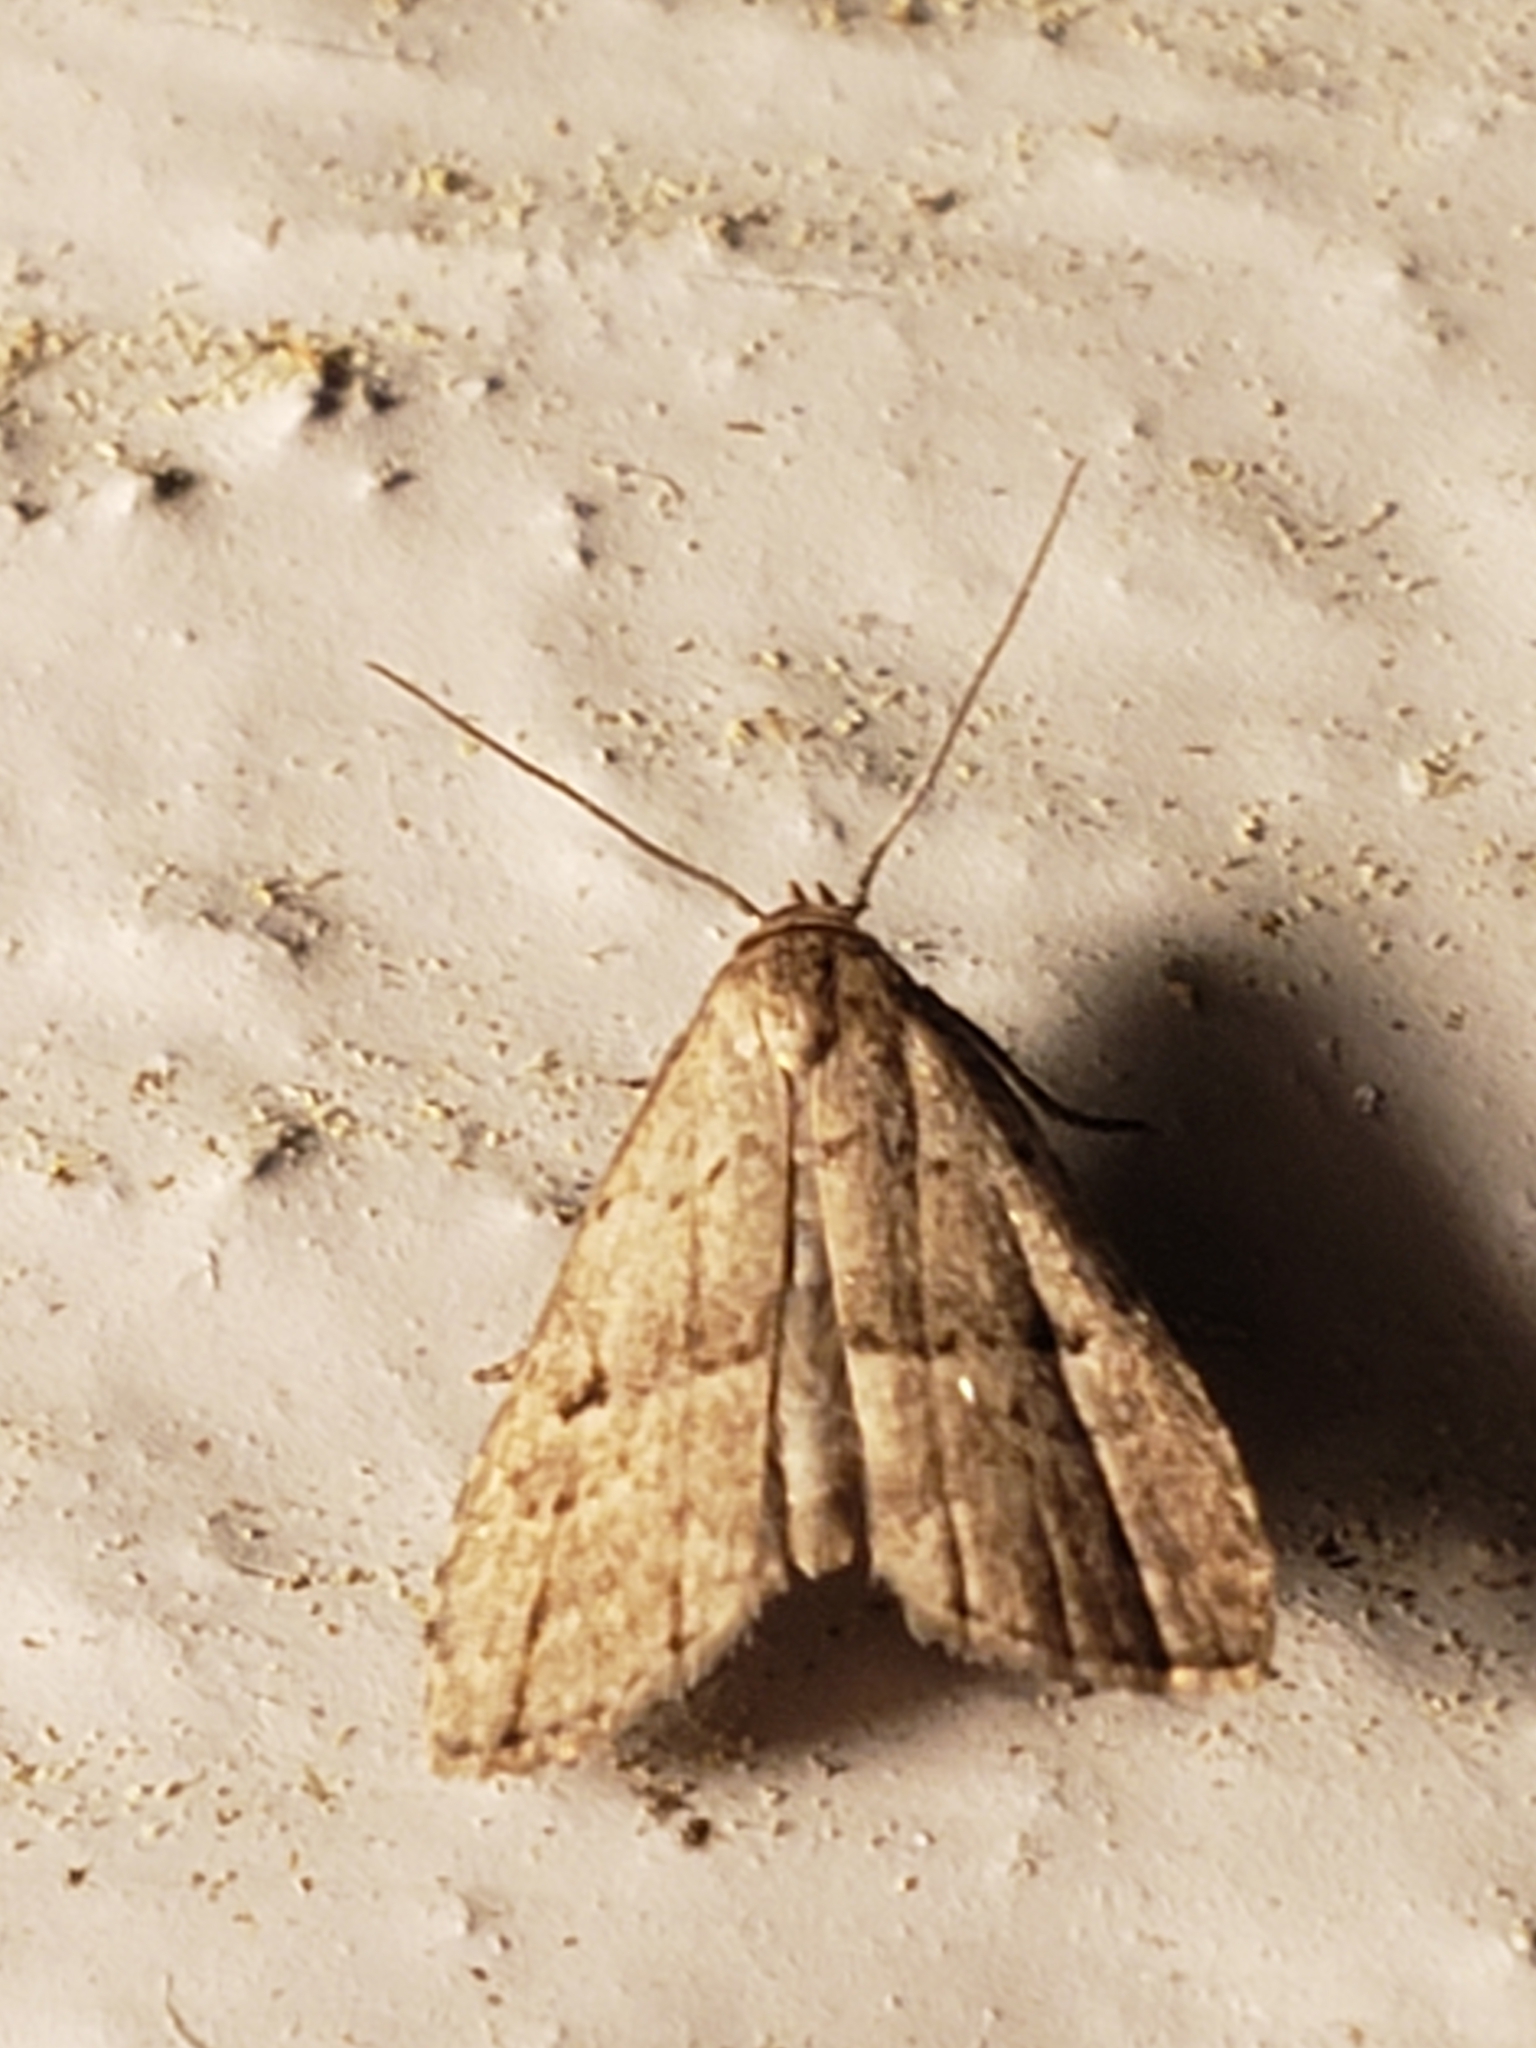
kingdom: Animalia
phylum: Arthropoda
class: Insecta
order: Lepidoptera
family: Erebidae
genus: Hypenodes
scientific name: Hypenodes fractilinea
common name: Broken-line hypenodes moth
